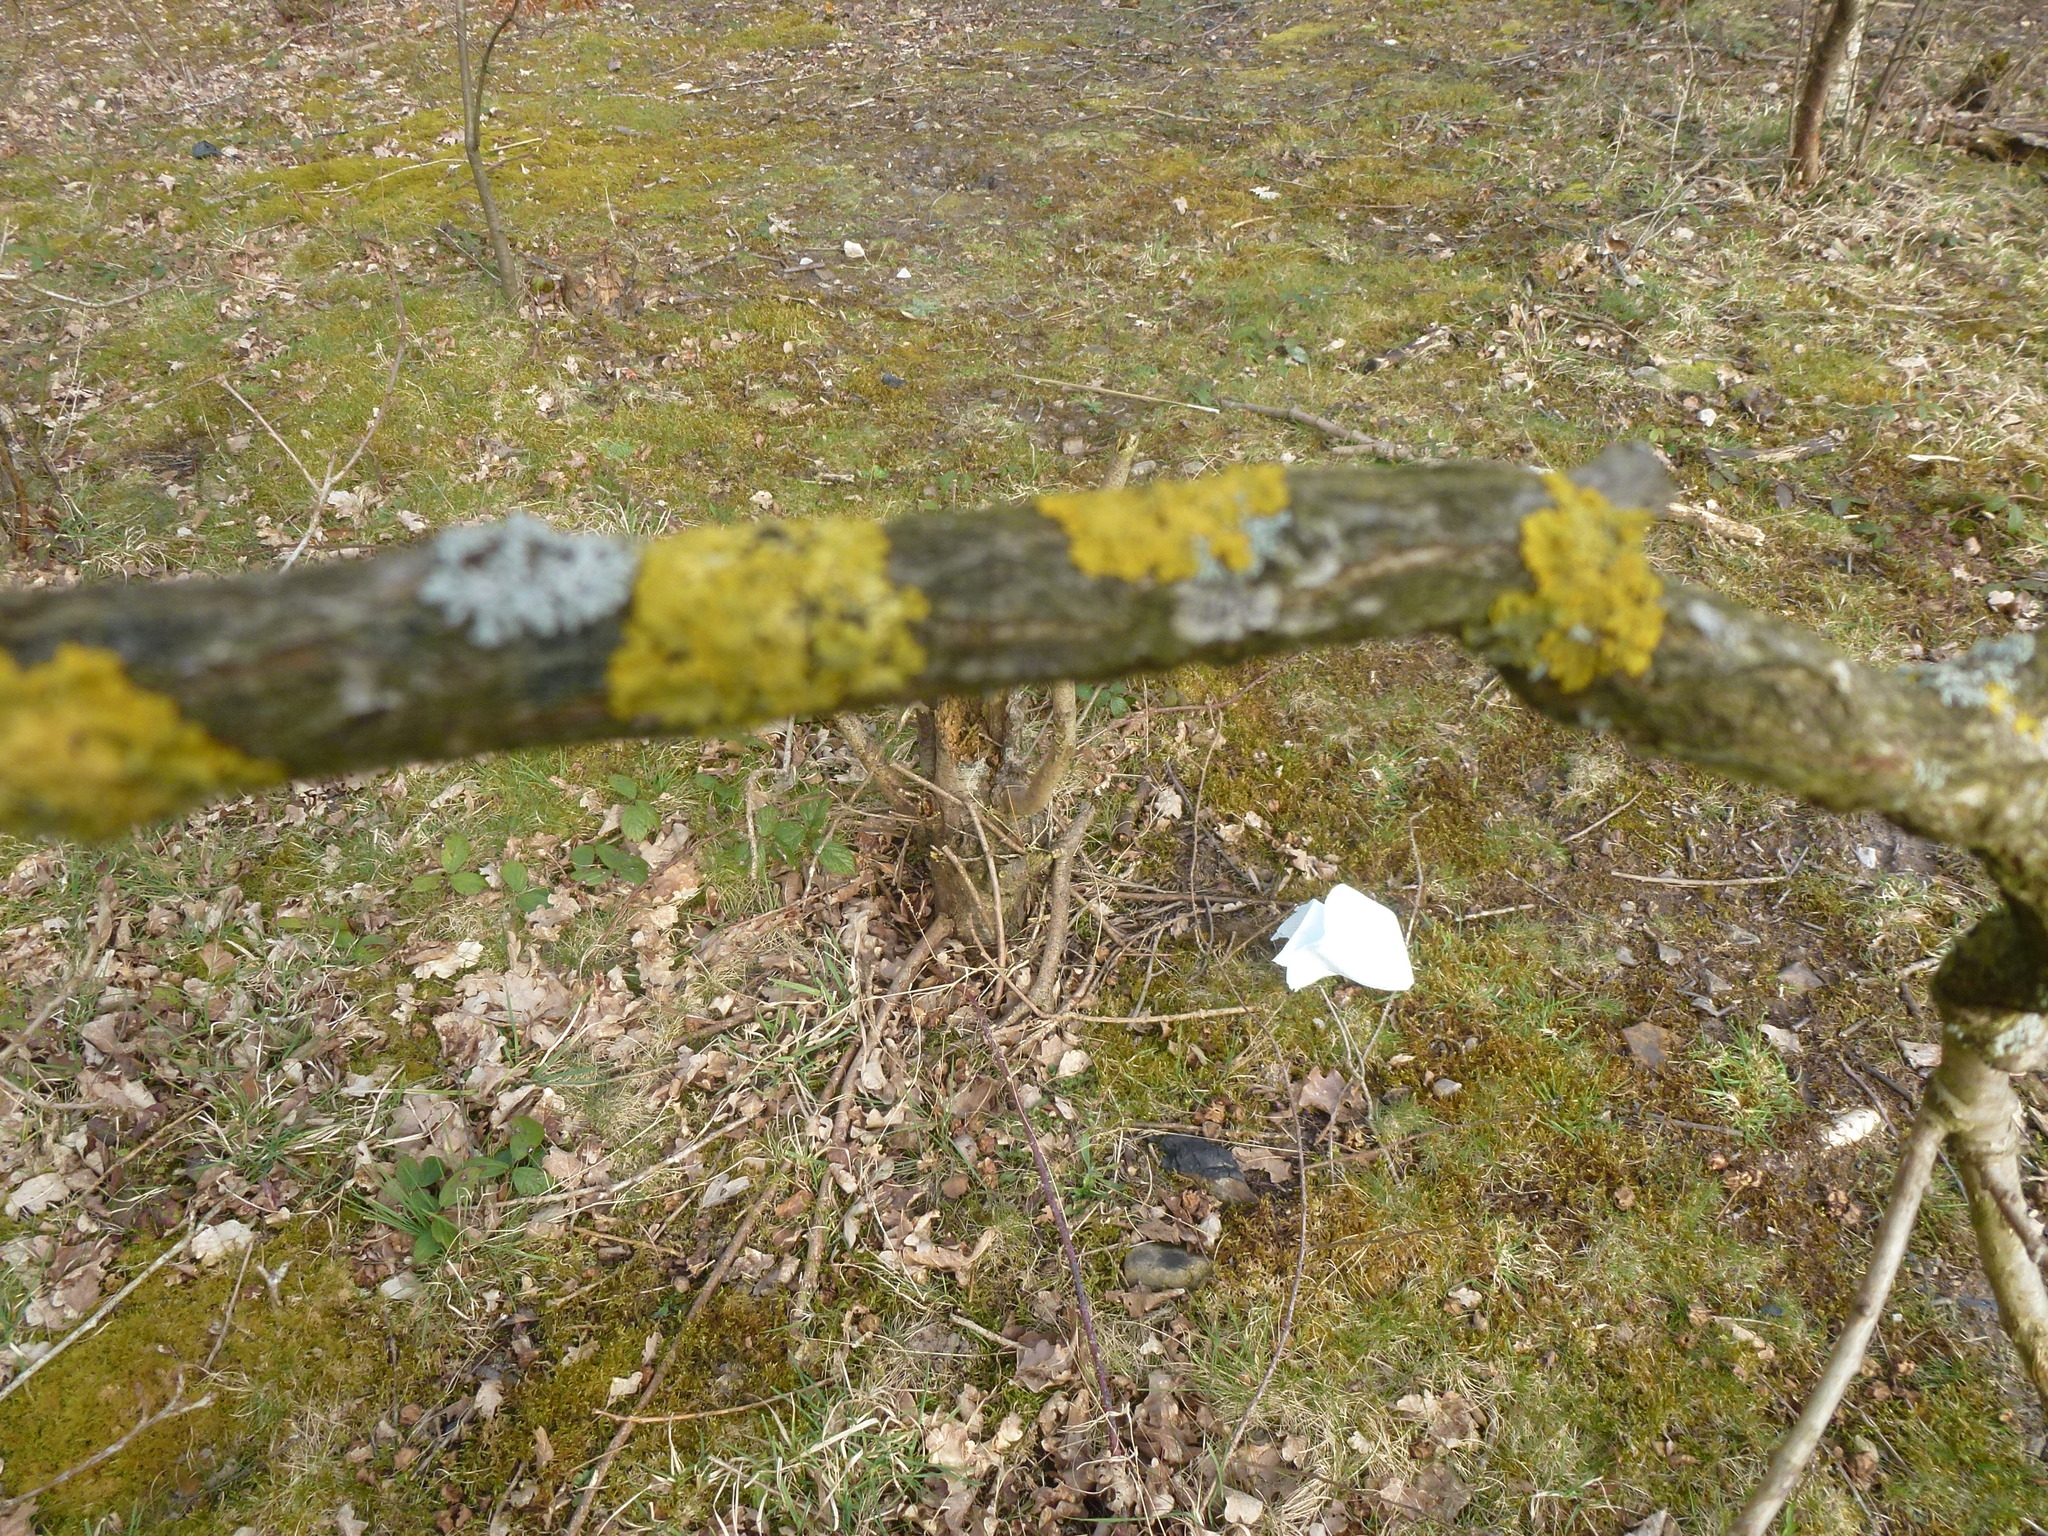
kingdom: Fungi
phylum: Ascomycota
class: Lecanoromycetes
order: Teloschistales
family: Teloschistaceae
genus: Xanthoria
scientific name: Xanthoria parietina
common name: Common orange lichen
